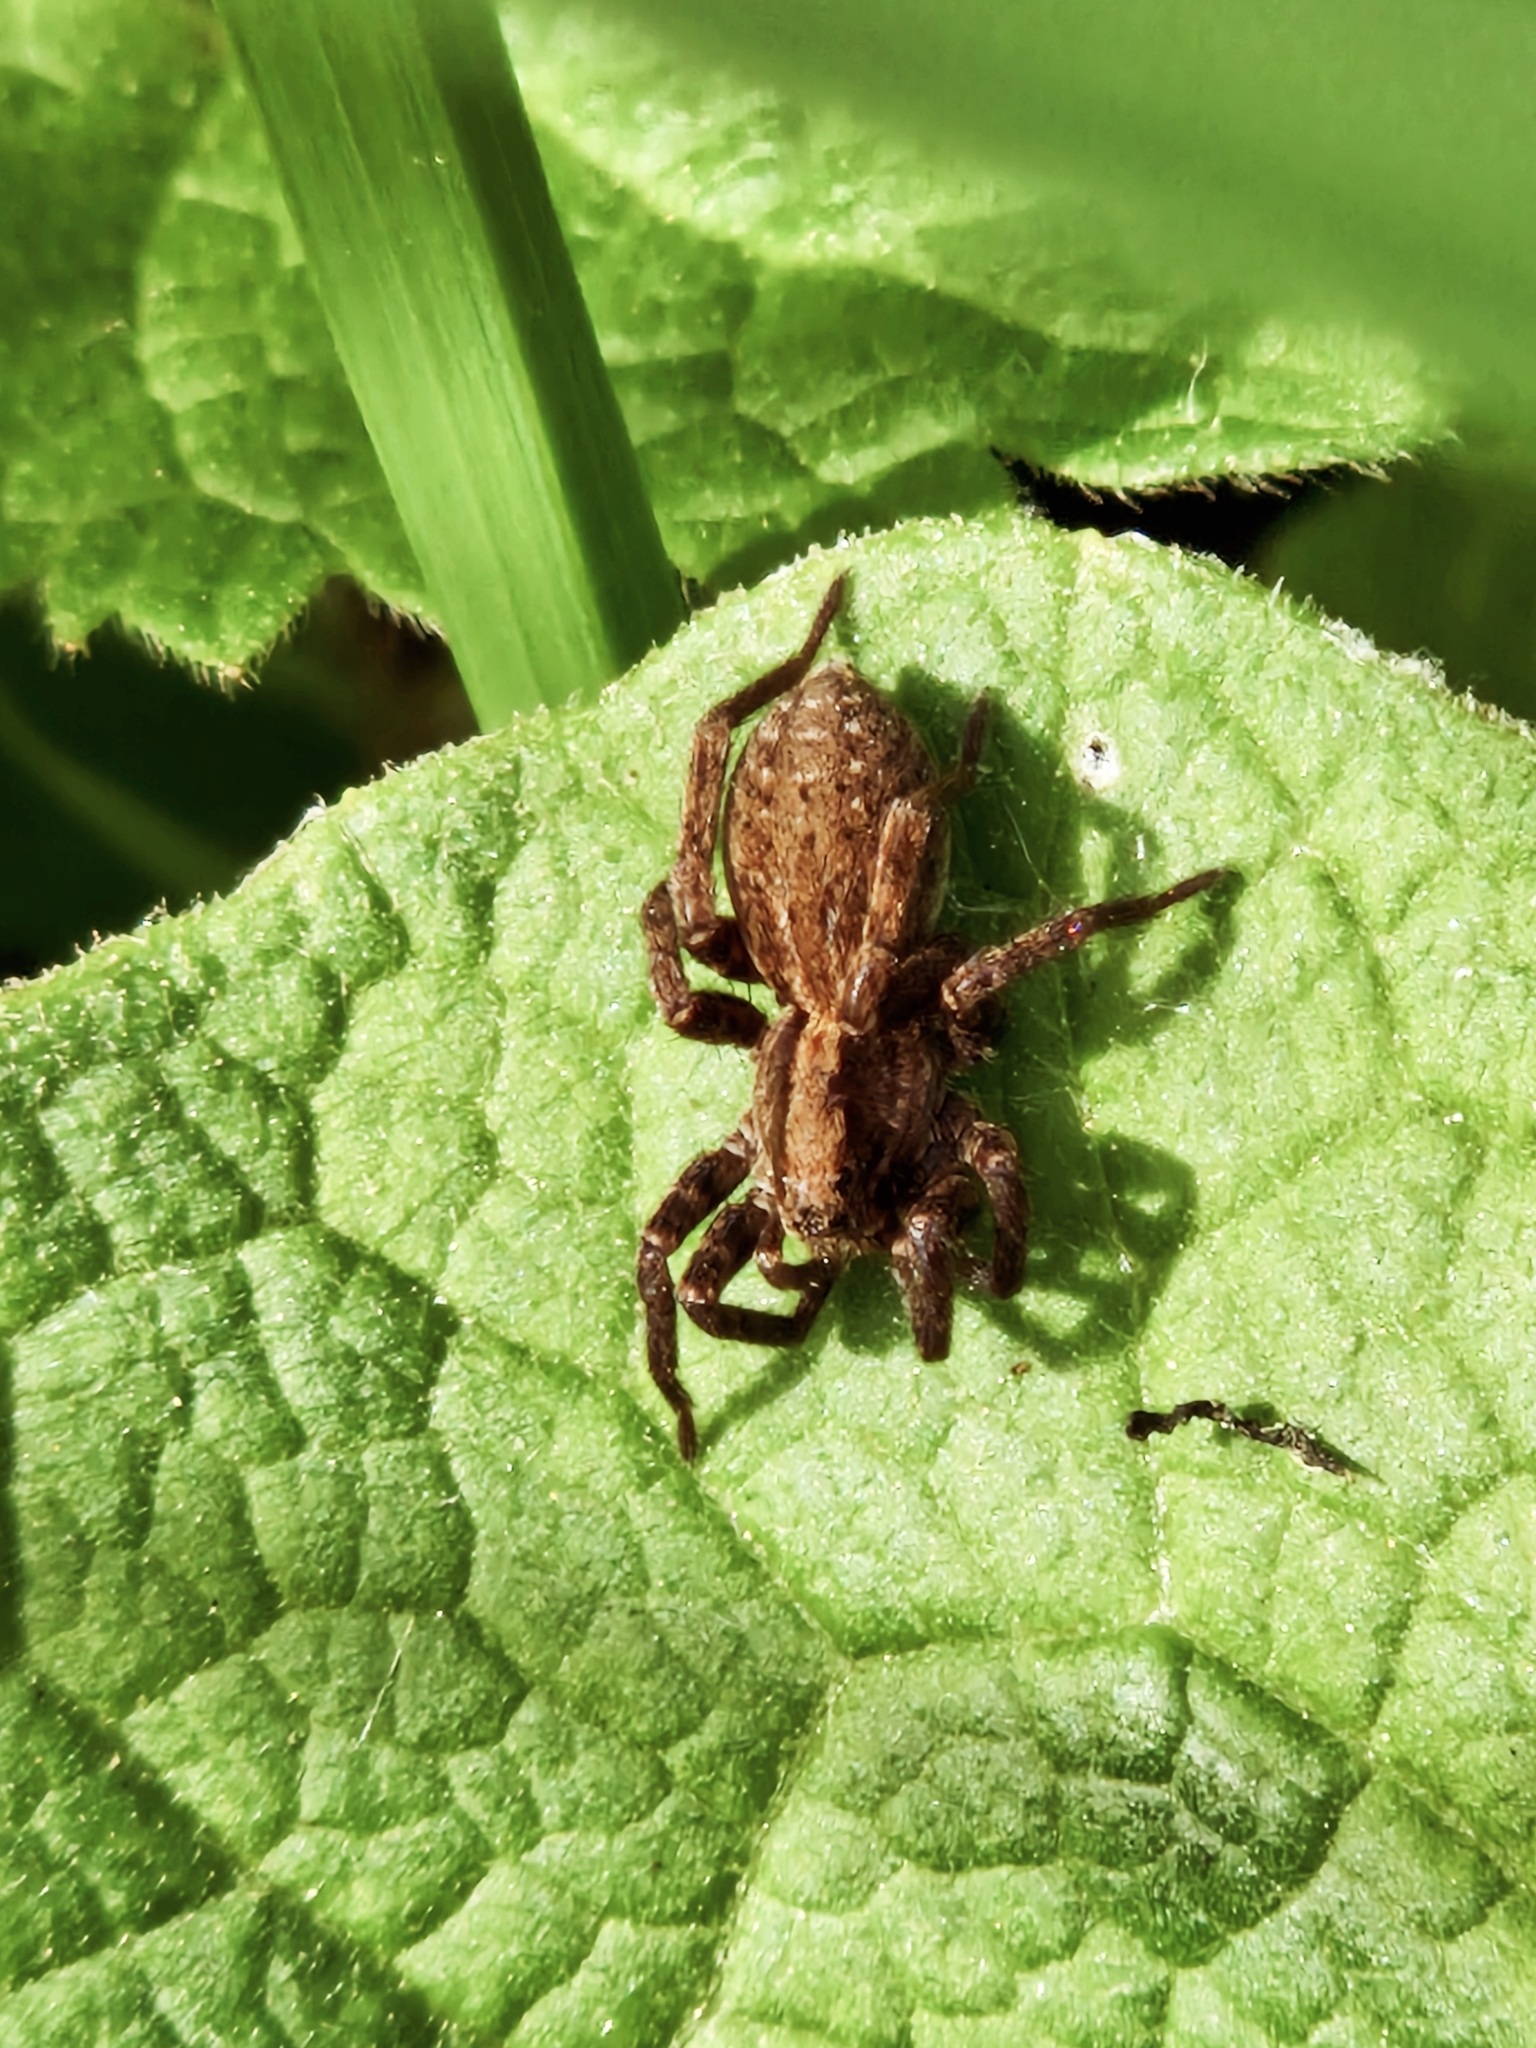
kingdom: Animalia
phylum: Arthropoda
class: Arachnida
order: Araneae
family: Lycosidae
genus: Alopecosa
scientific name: Alopecosa pulverulenta
